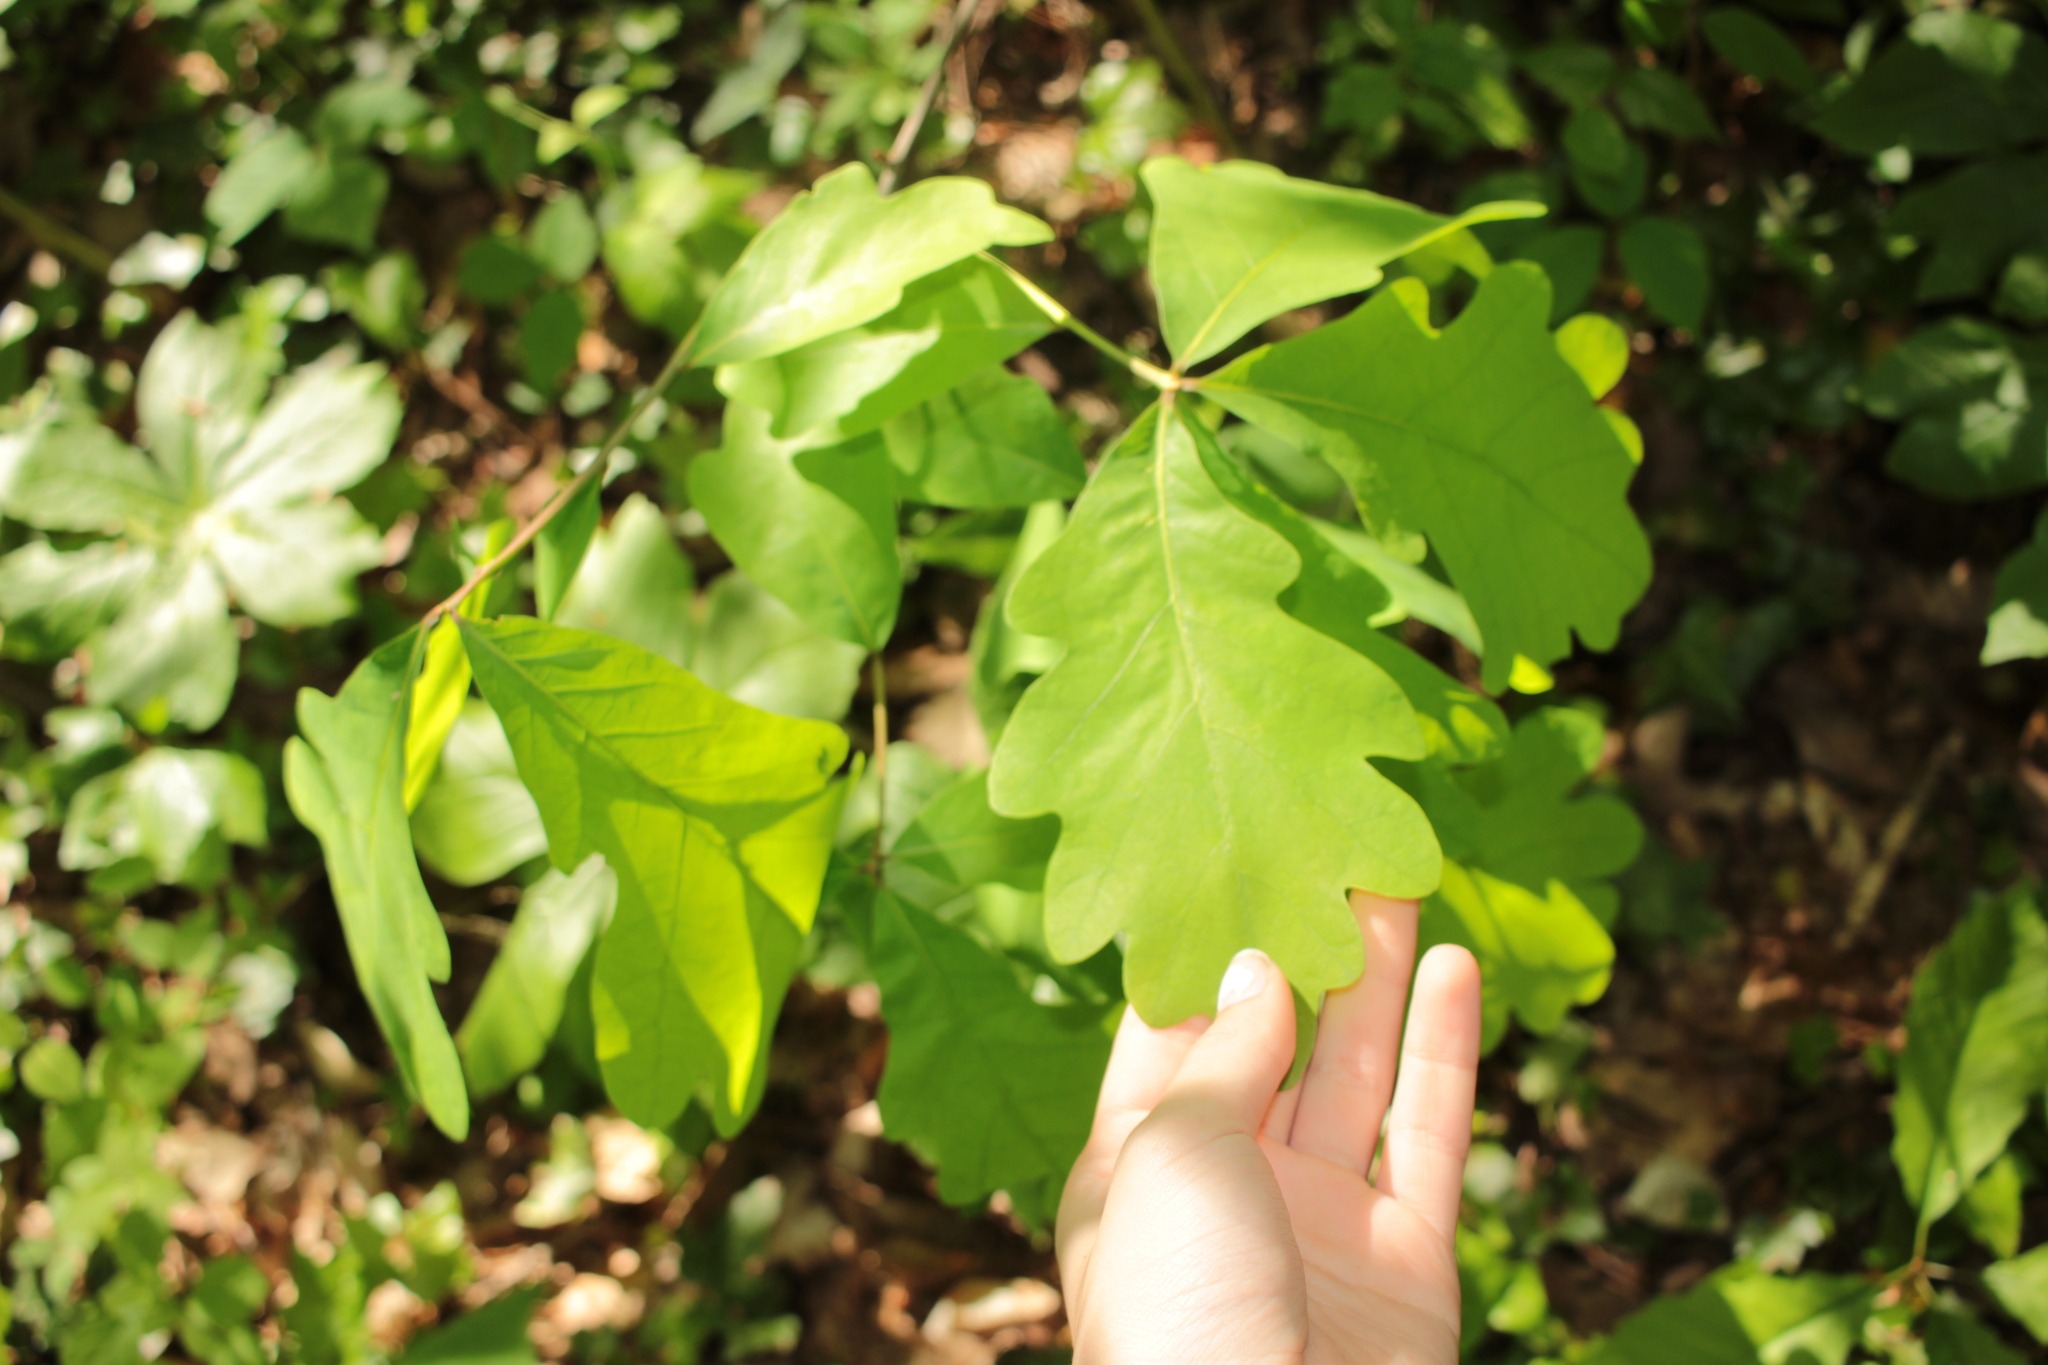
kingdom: Plantae
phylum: Tracheophyta
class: Magnoliopsida
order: Fagales
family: Fagaceae
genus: Quercus
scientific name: Quercus alba
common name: White oak
